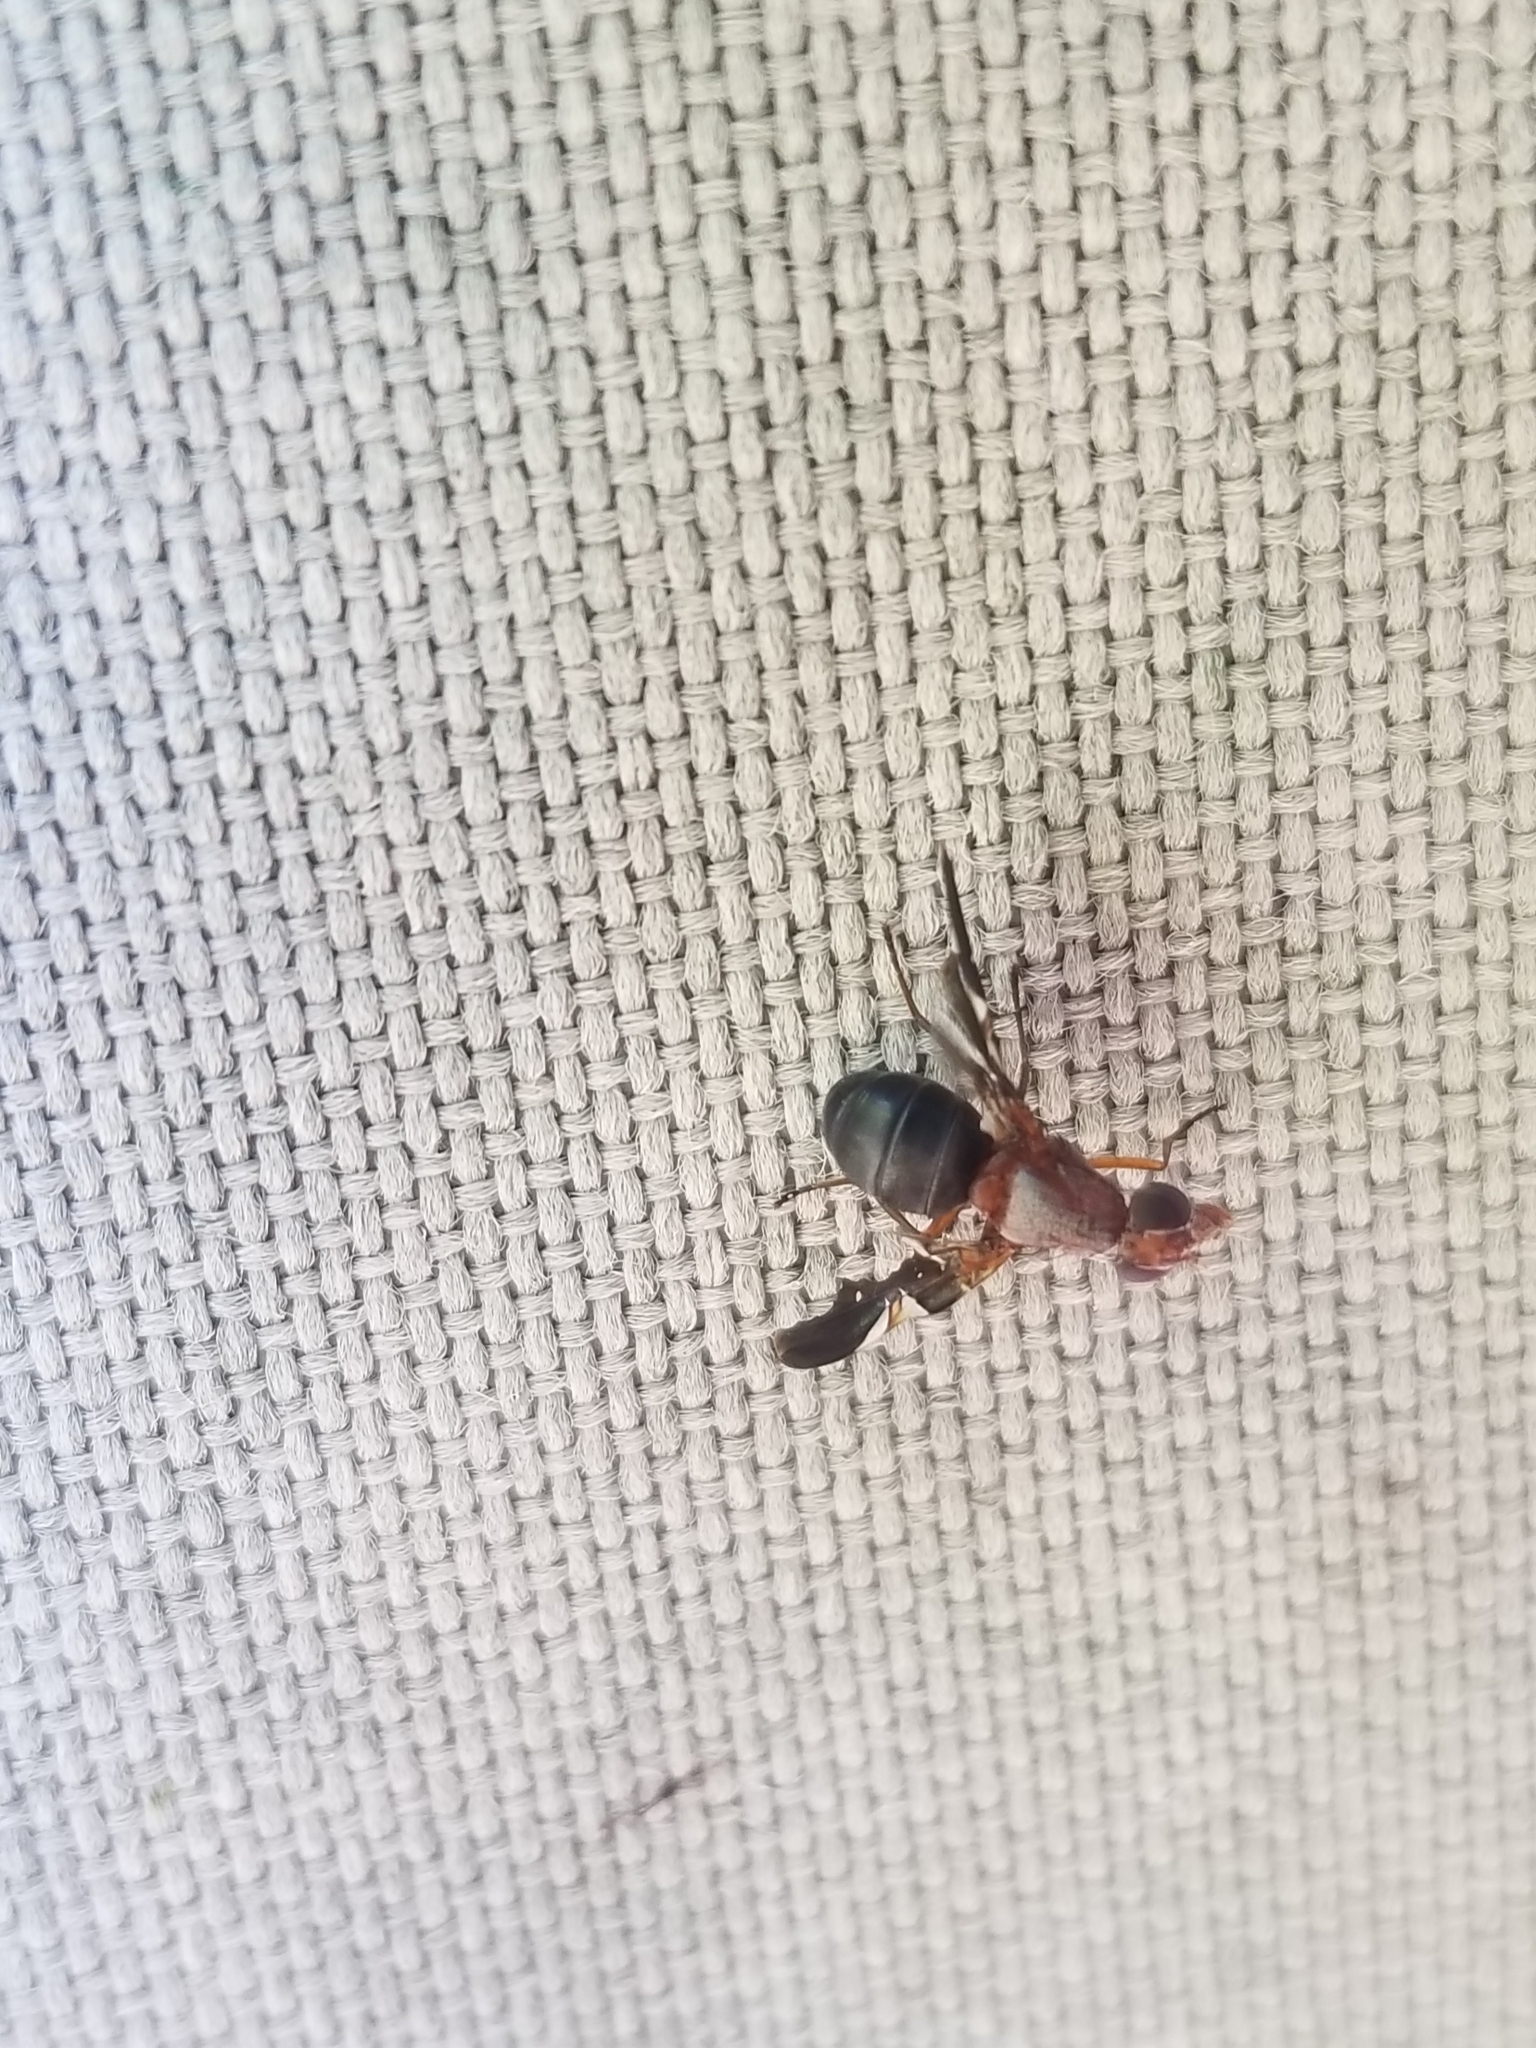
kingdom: Animalia
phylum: Arthropoda
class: Insecta
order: Diptera
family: Ulidiidae
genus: Delphinia
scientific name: Delphinia picta
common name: Common picture-winged fly
